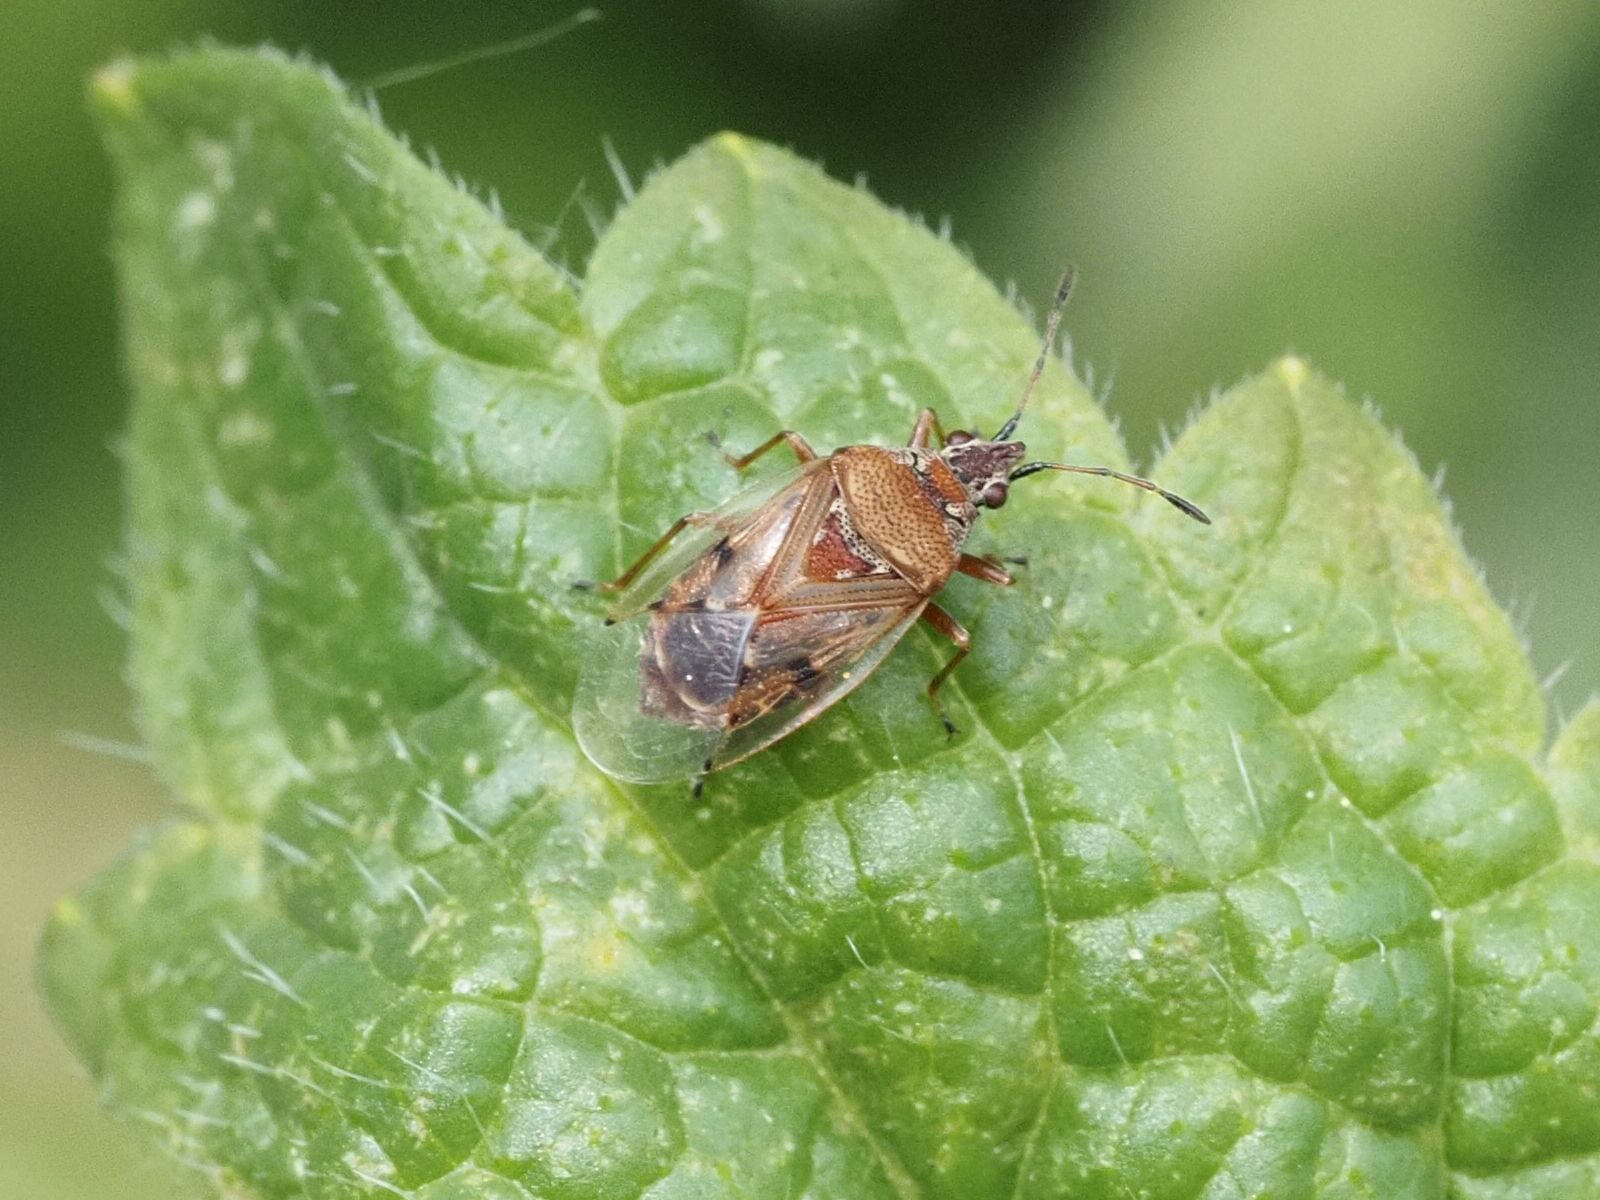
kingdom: Animalia
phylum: Arthropoda
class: Insecta
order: Hemiptera
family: Lygaeidae
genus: Kleidocerys
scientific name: Kleidocerys resedae
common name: Birch catkin bug
